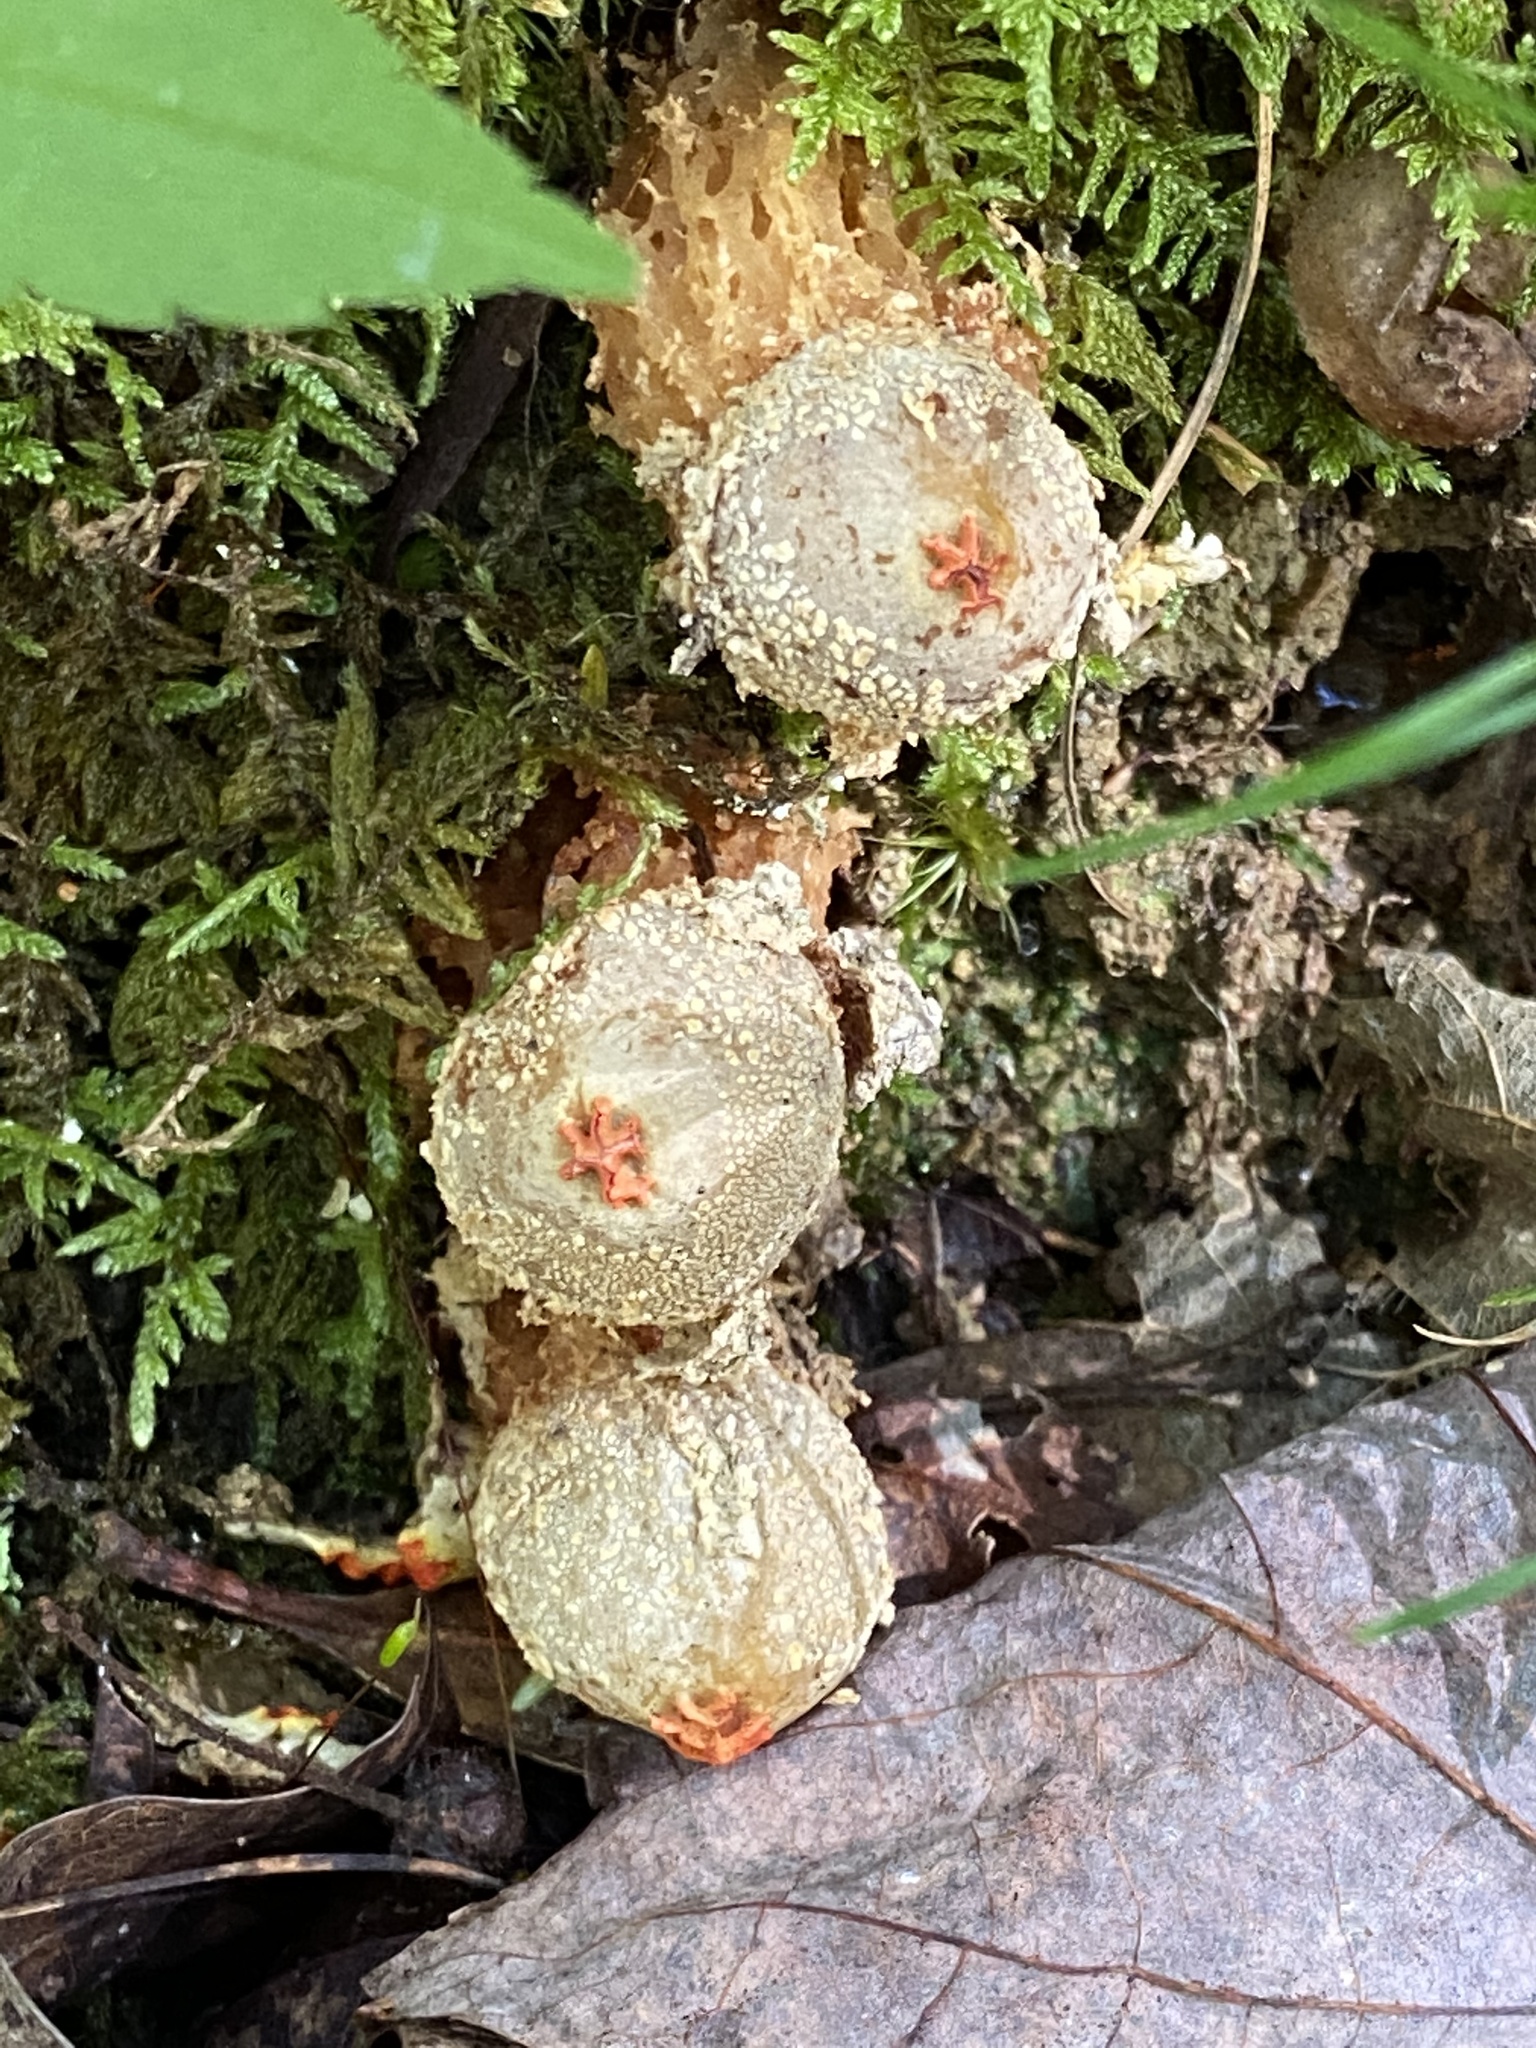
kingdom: Fungi
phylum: Basidiomycota
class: Agaricomycetes
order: Boletales
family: Calostomataceae
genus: Calostoma
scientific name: Calostoma ravenelii
